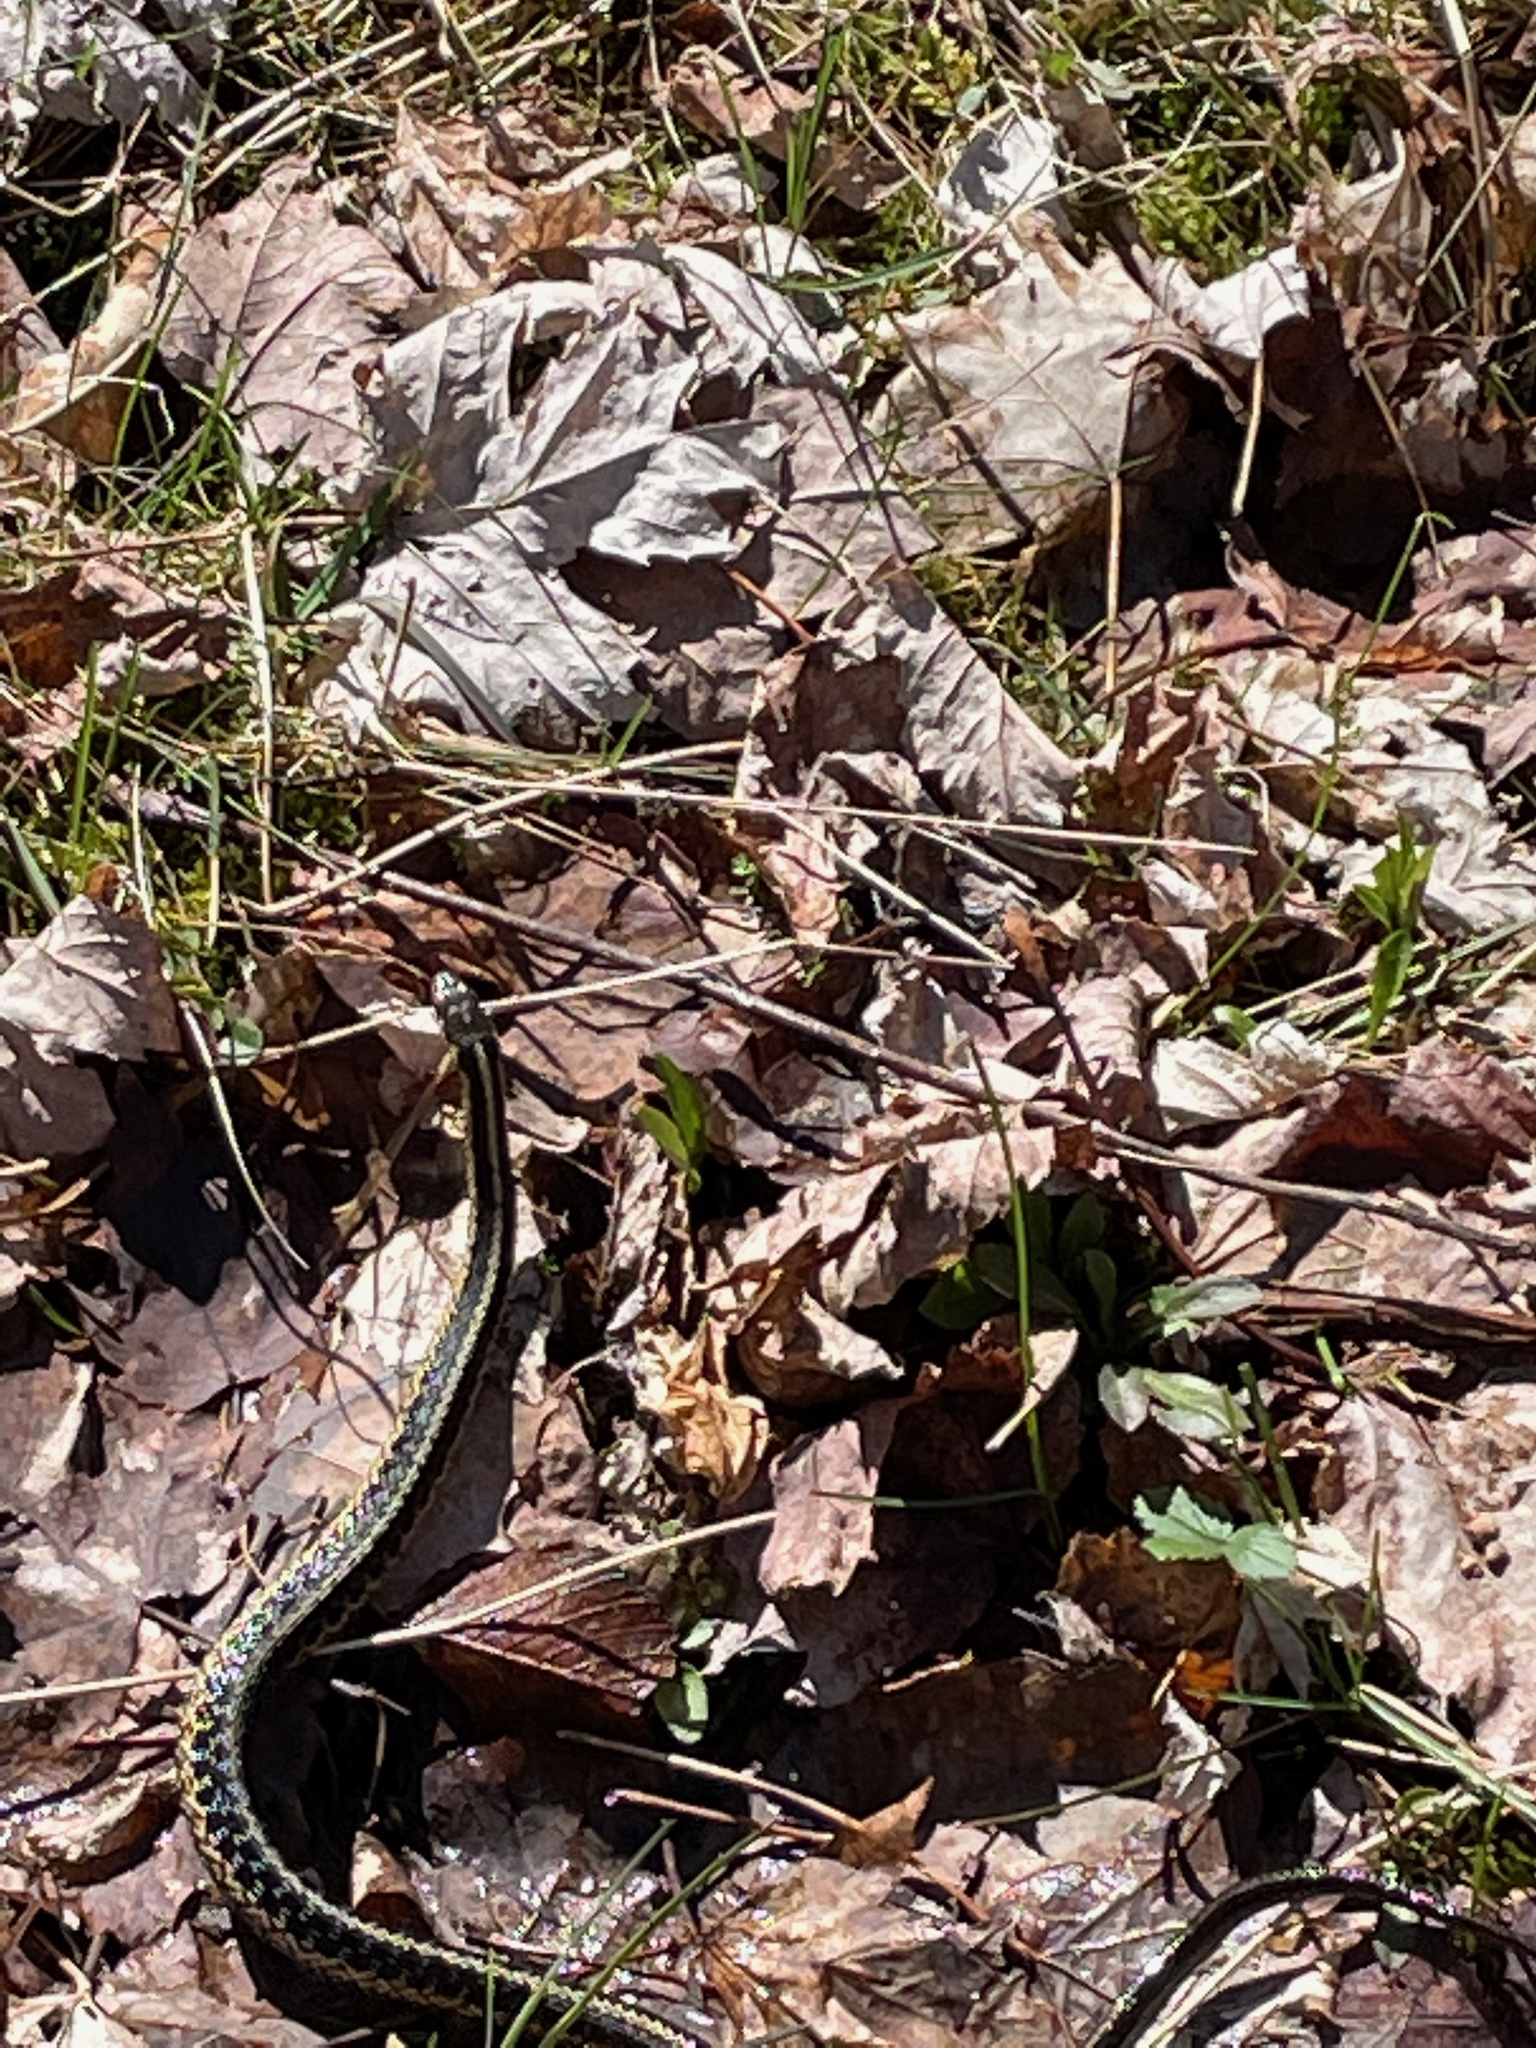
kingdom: Animalia
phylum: Chordata
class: Squamata
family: Colubridae
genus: Thamnophis
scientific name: Thamnophis sirtalis
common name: Common garter snake
